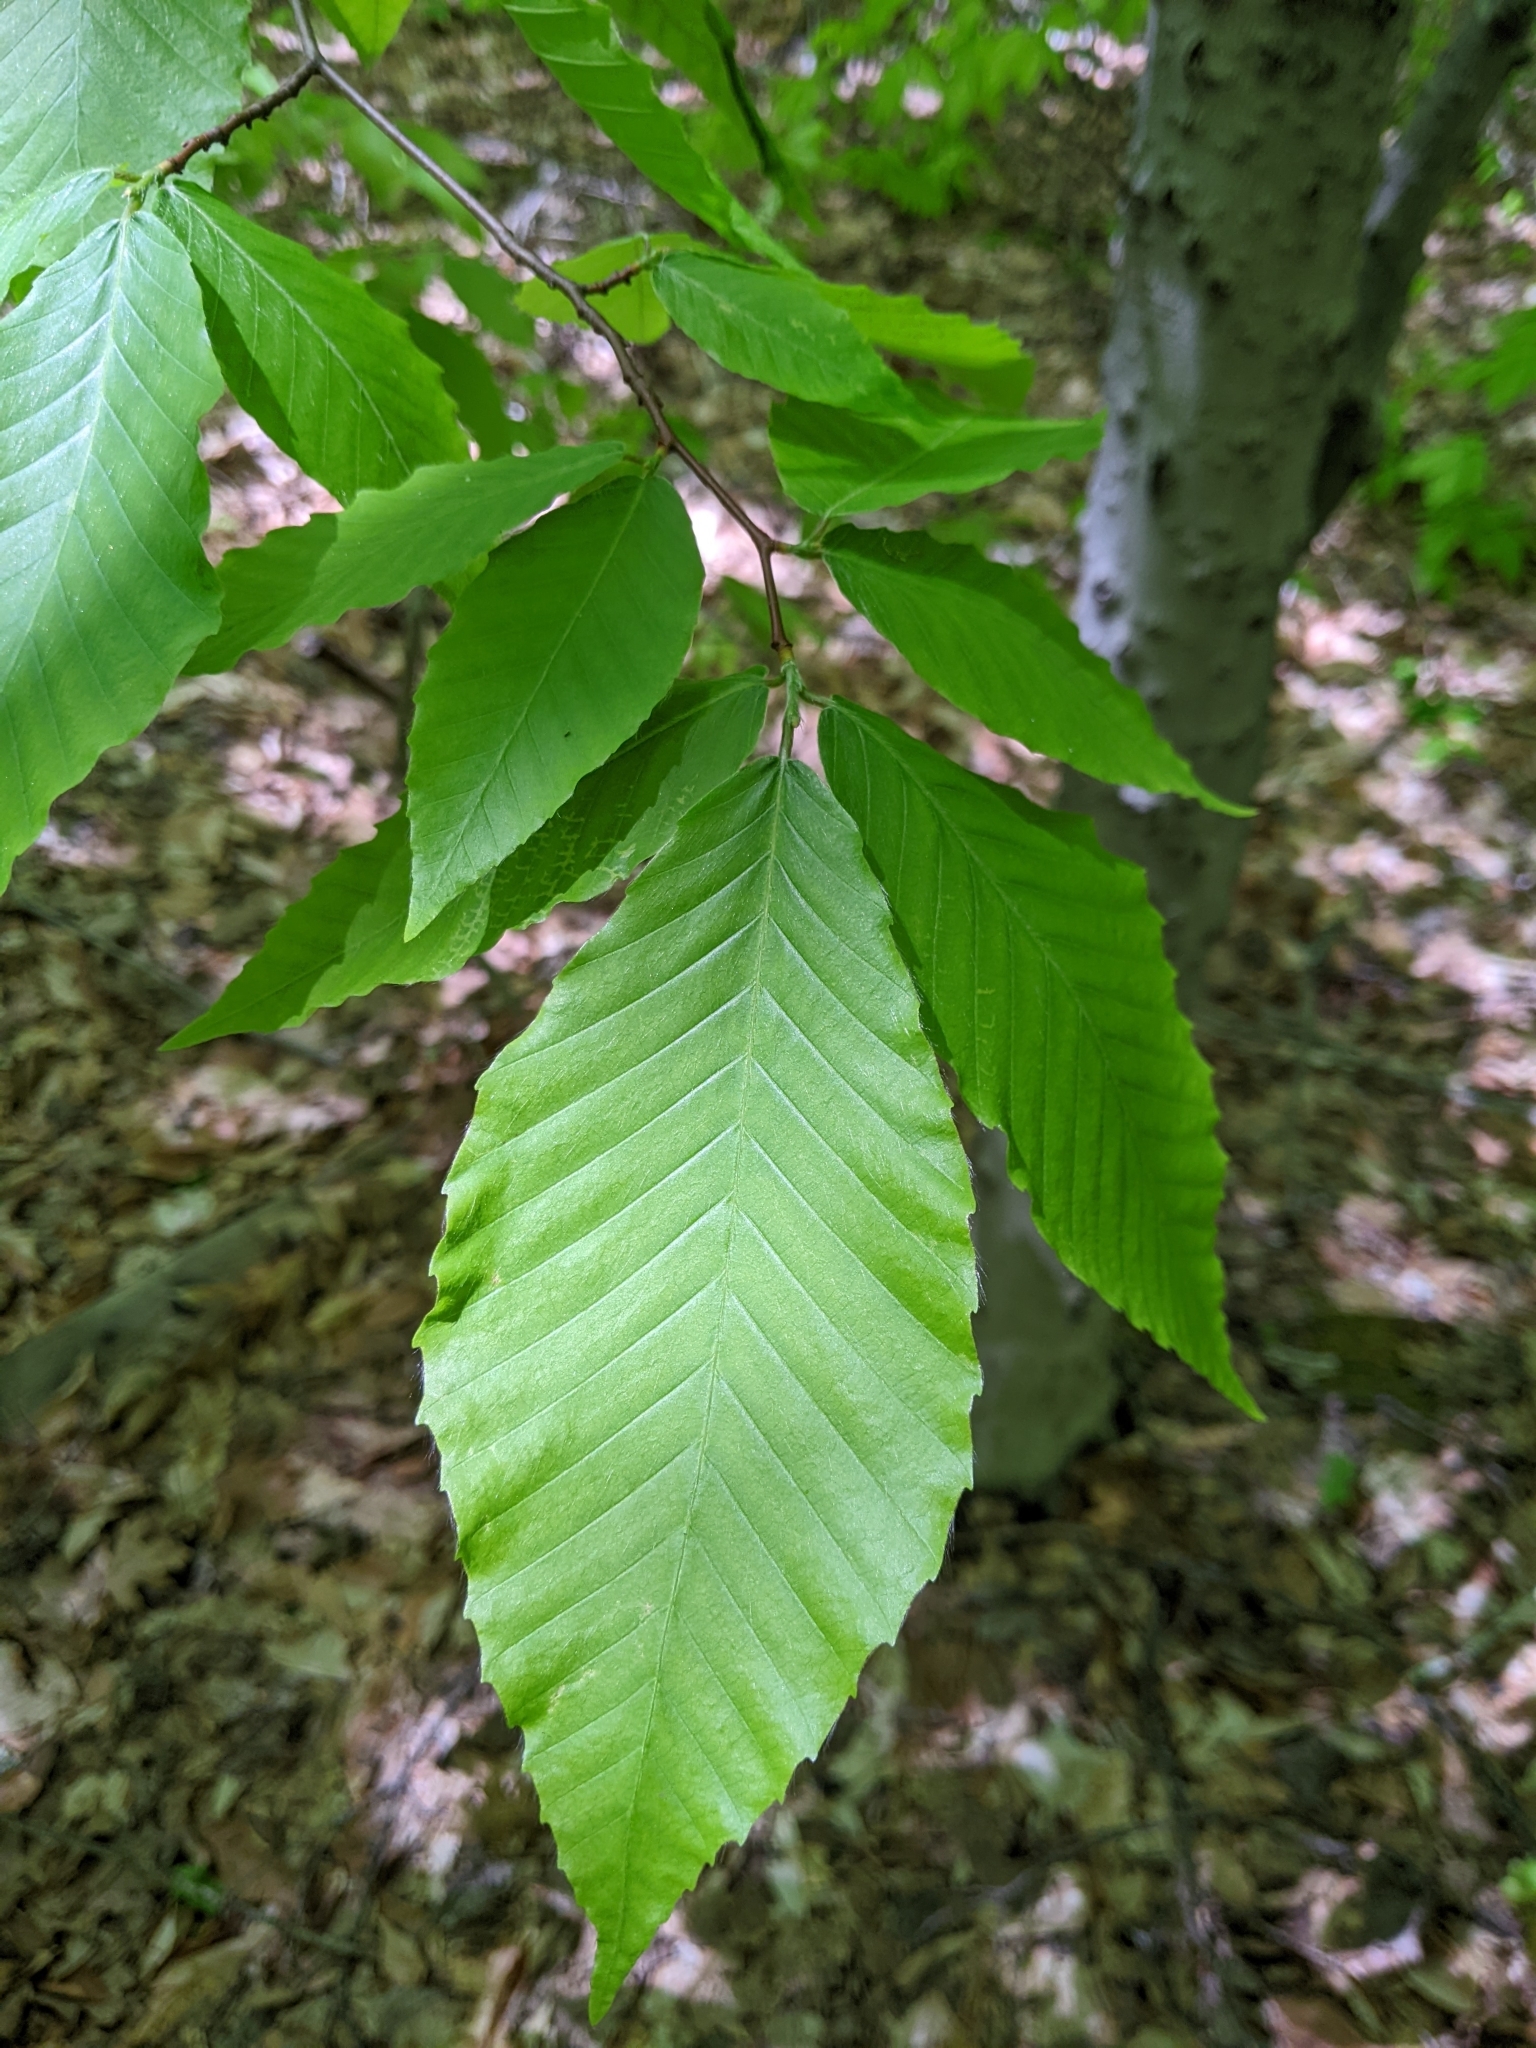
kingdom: Plantae
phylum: Tracheophyta
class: Magnoliopsida
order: Fagales
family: Fagaceae
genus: Fagus
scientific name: Fagus grandifolia
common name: American beech
